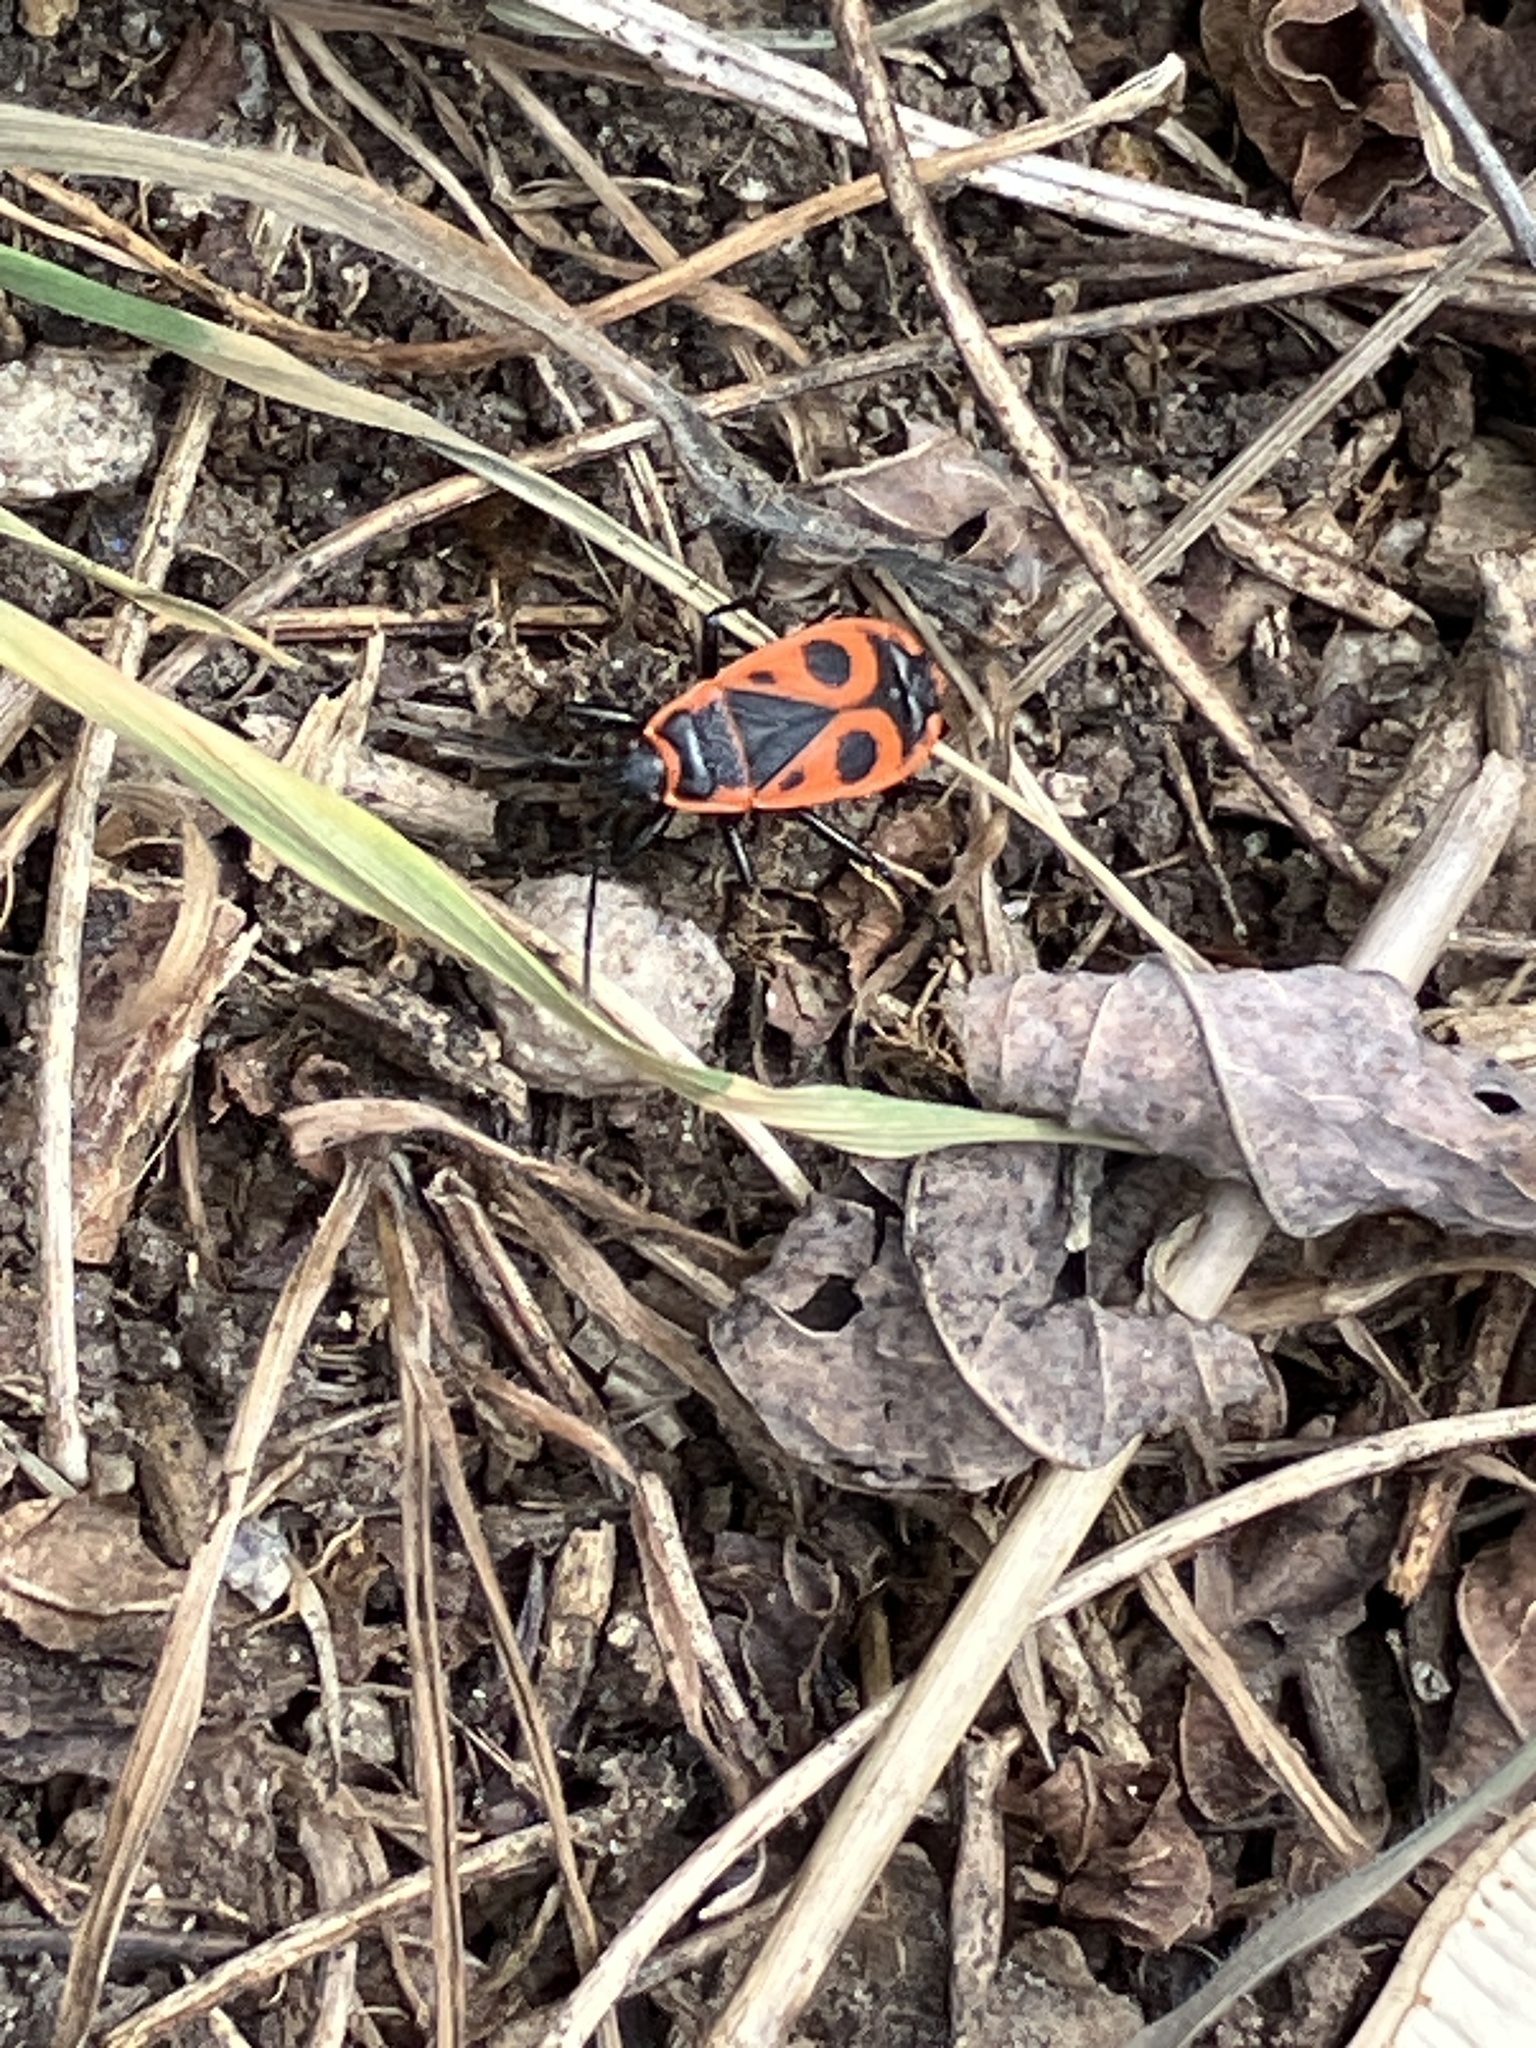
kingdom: Animalia
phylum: Arthropoda
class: Insecta
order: Hemiptera
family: Pyrrhocoridae
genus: Pyrrhocoris
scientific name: Pyrrhocoris apterus
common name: Firebug
